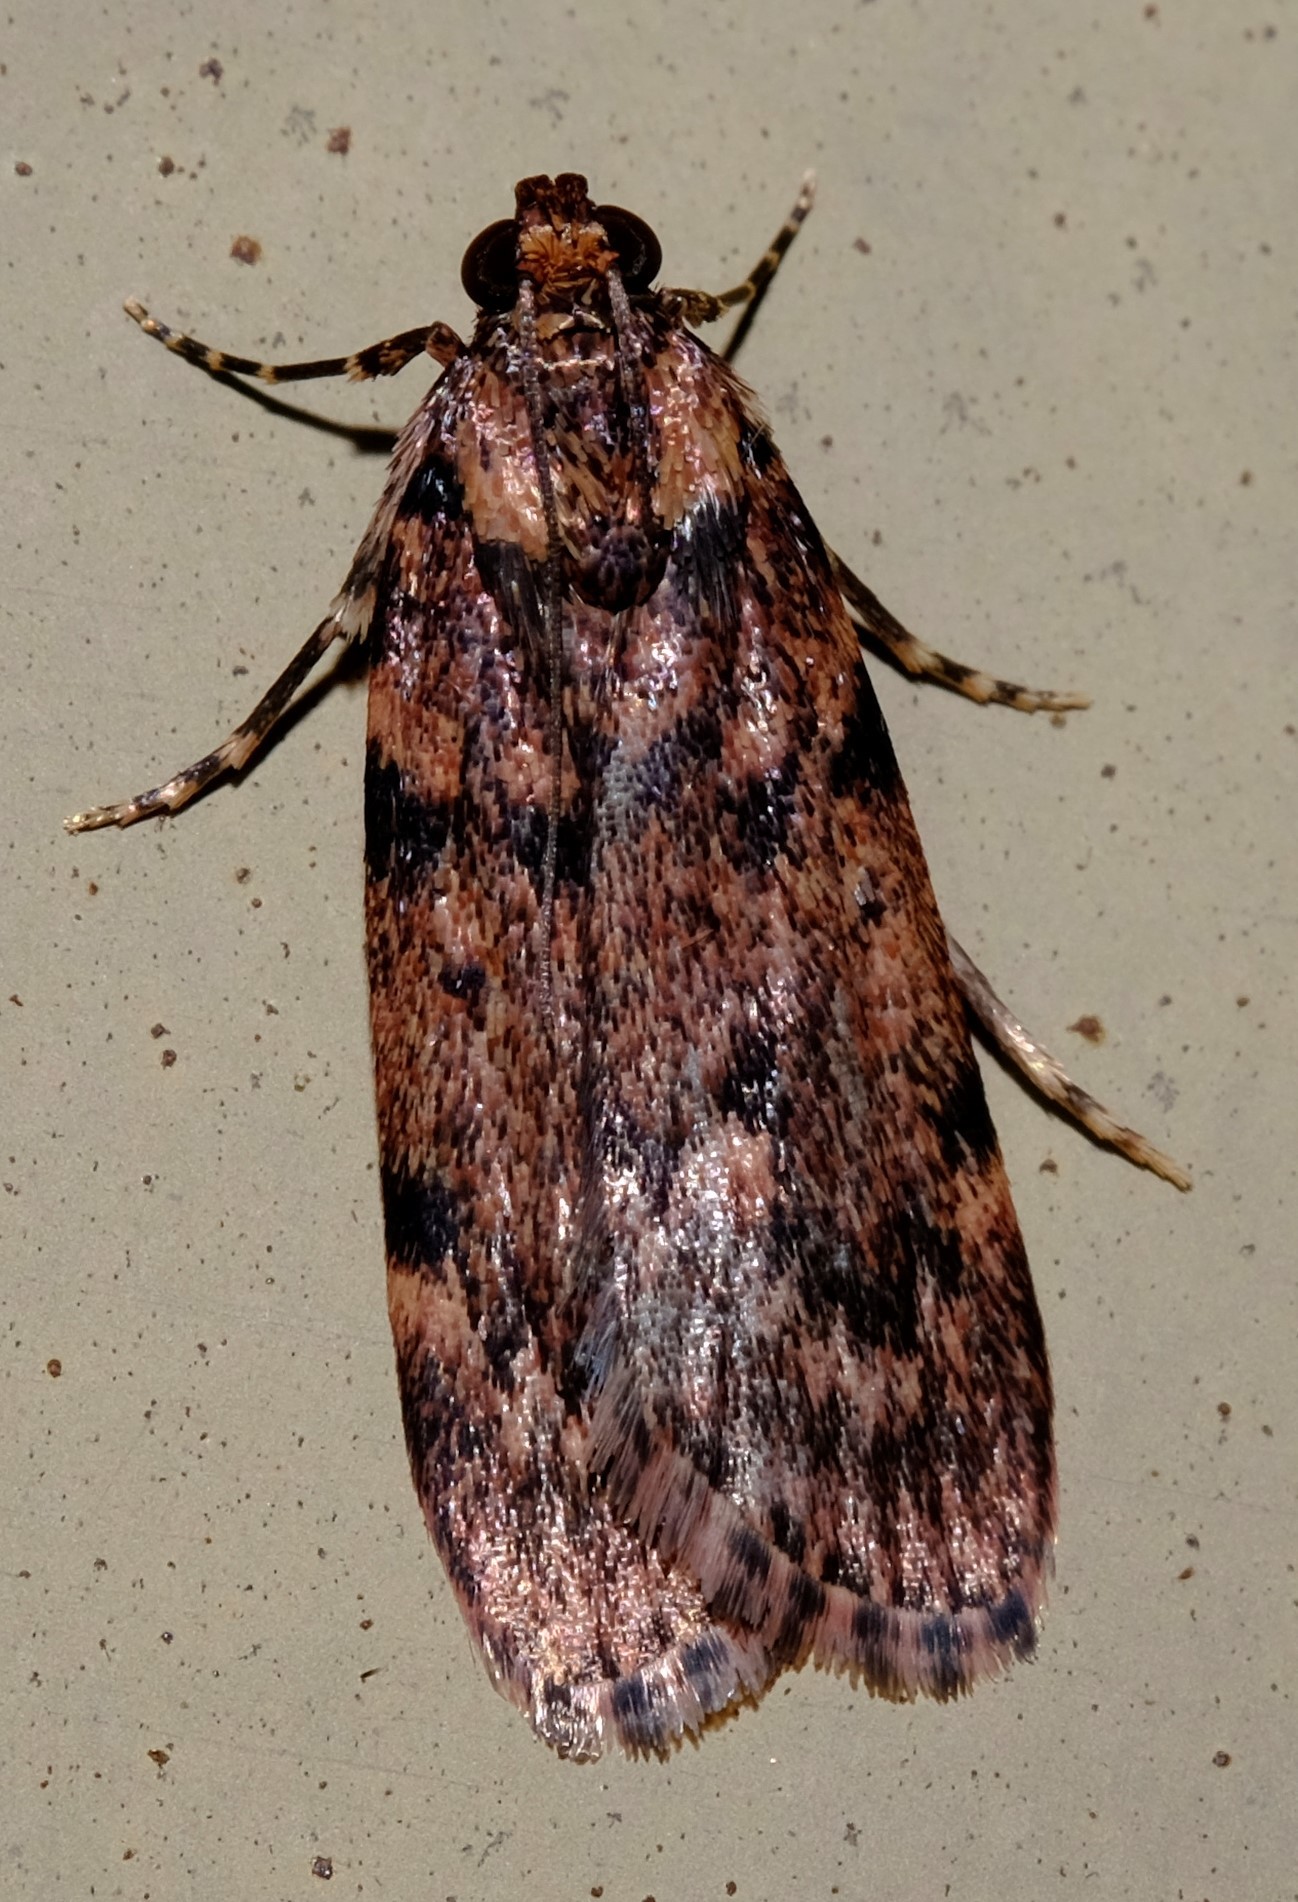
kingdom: Animalia
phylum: Arthropoda
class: Insecta
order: Lepidoptera
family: Pyralidae
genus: Mimaglossa
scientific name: Mimaglossa nauplialis
